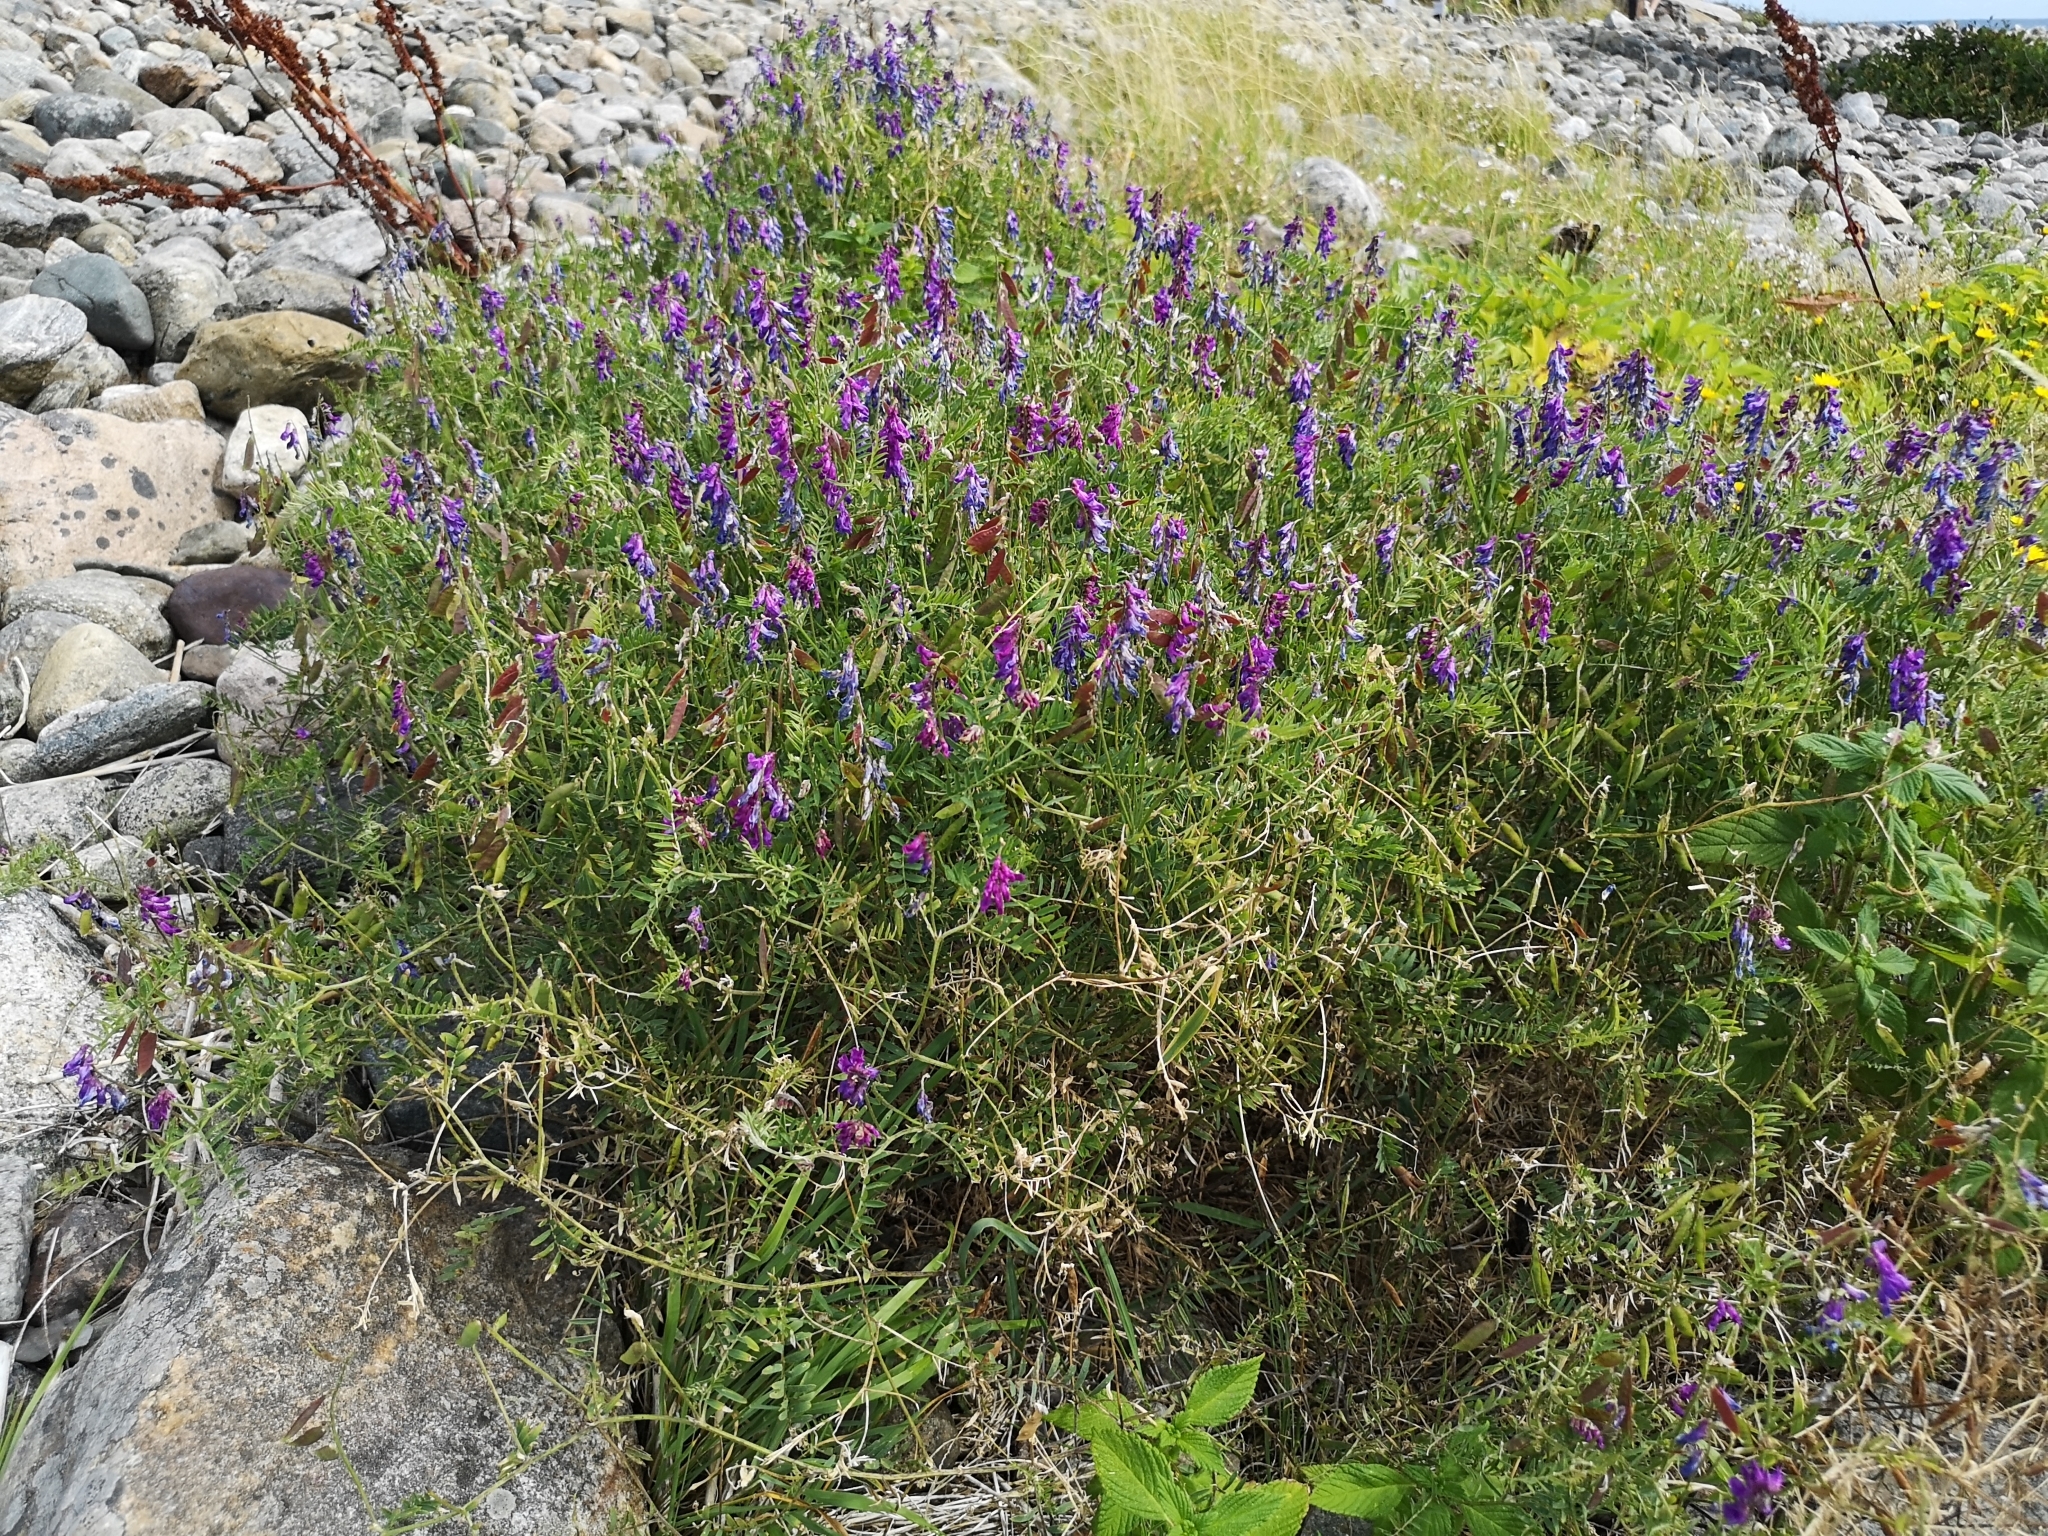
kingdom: Plantae
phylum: Tracheophyta
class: Magnoliopsida
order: Fabales
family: Fabaceae
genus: Vicia
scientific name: Vicia cracca
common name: Bird vetch
